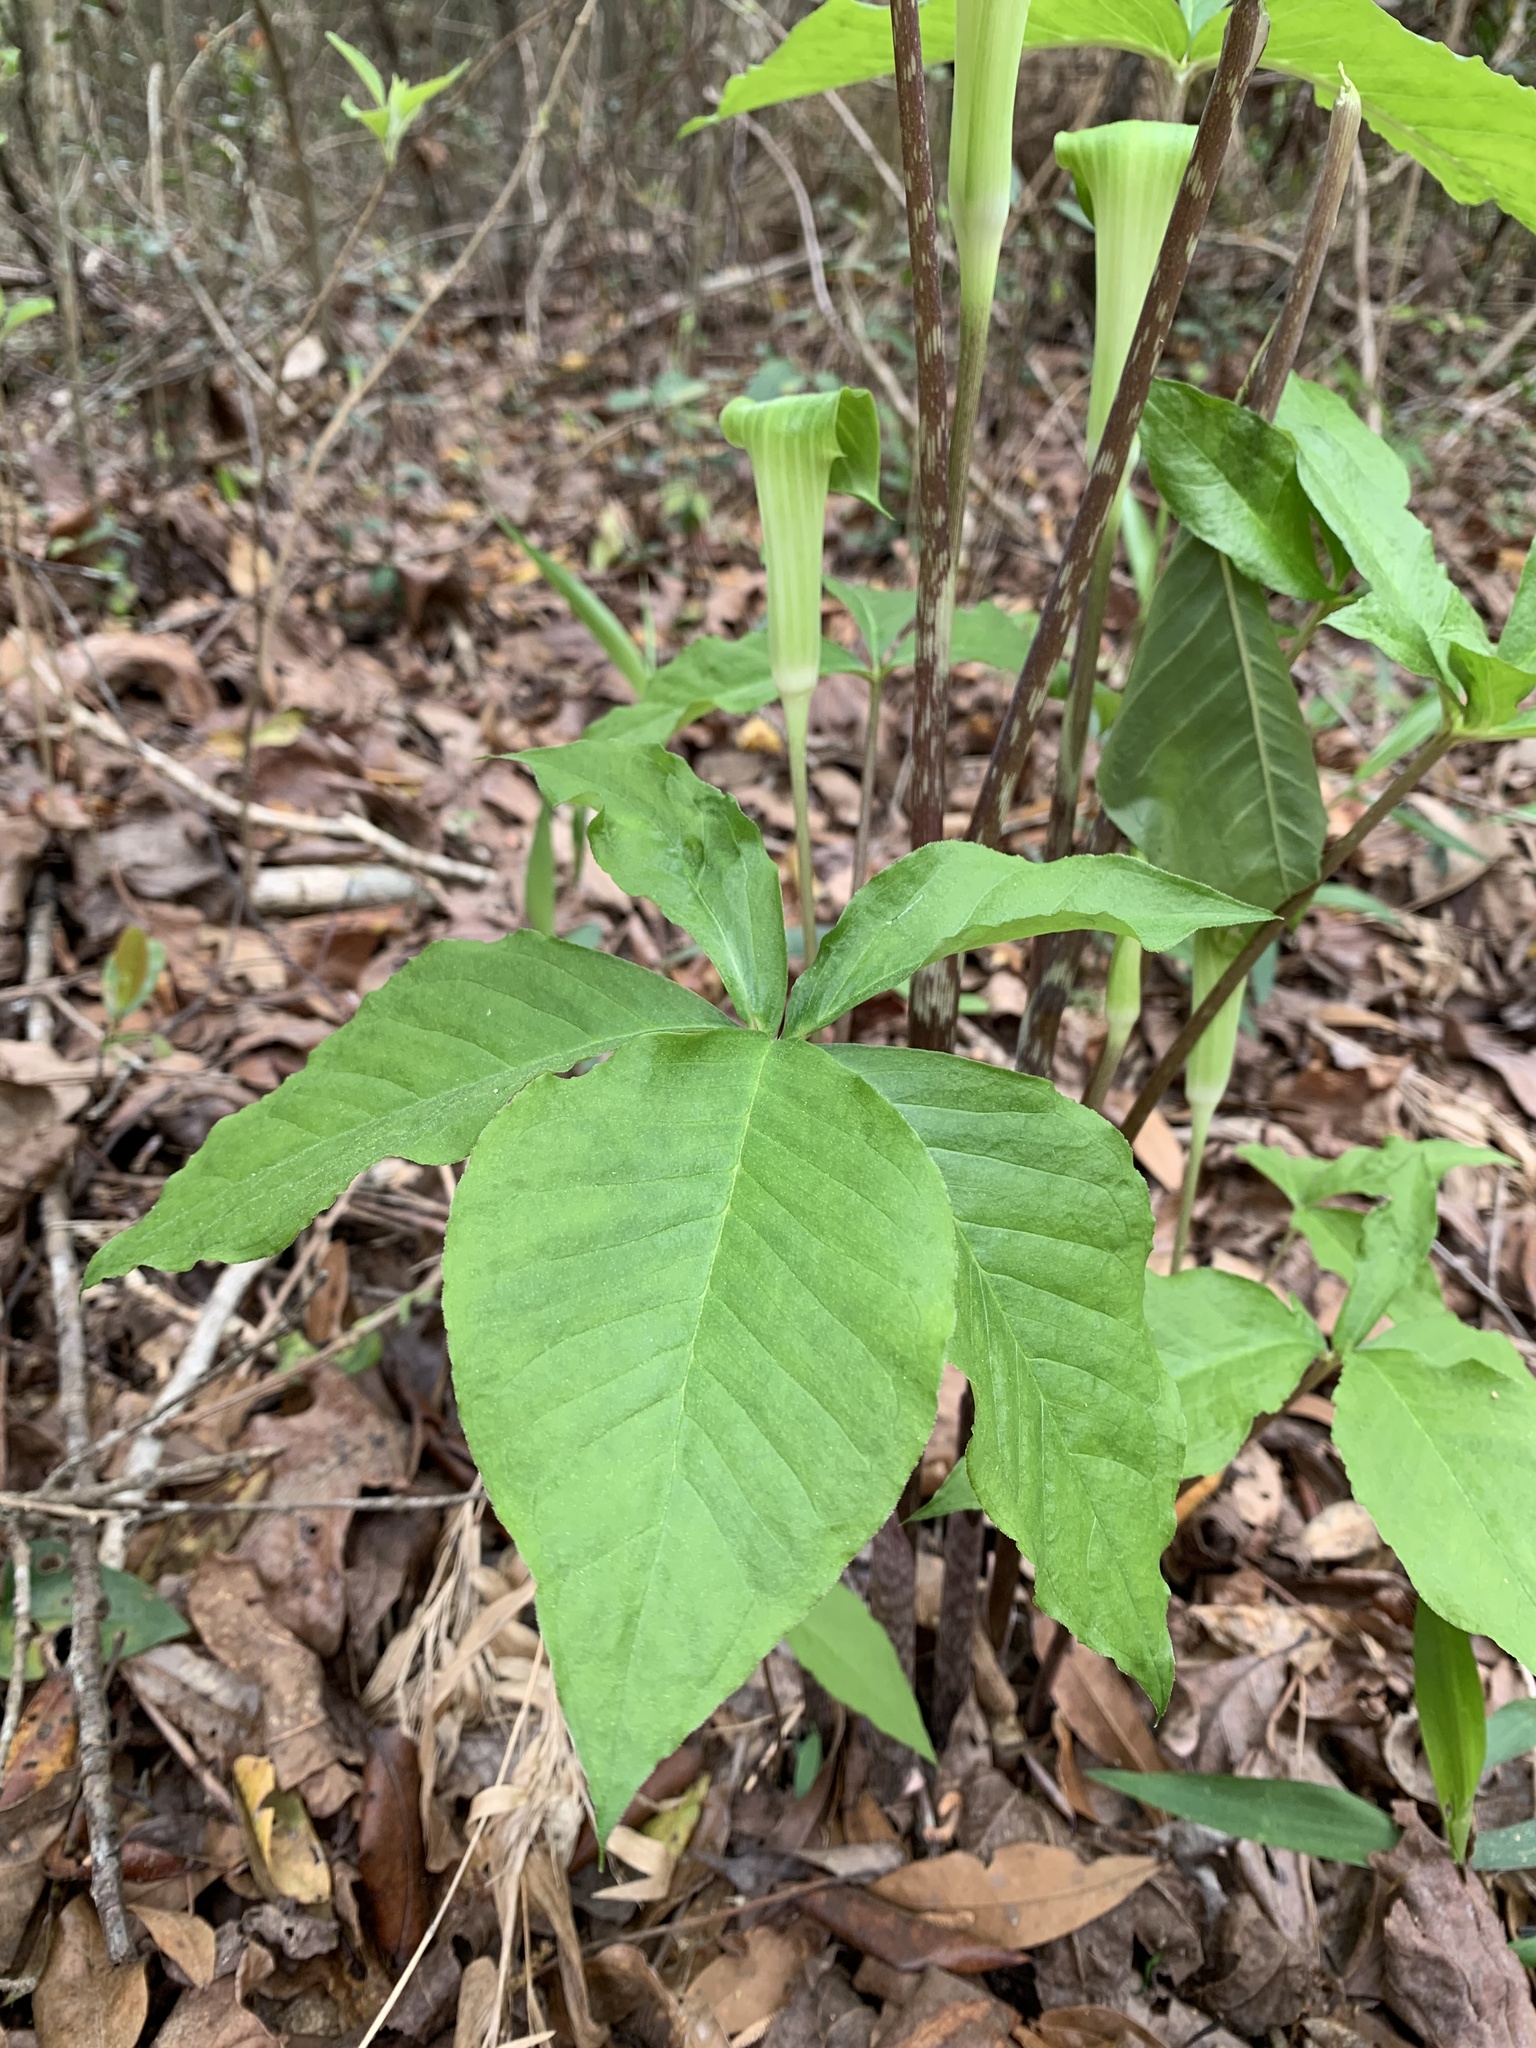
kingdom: Plantae
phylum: Tracheophyta
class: Liliopsida
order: Alismatales
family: Araceae
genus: Arisaema
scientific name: Arisaema quinatum
